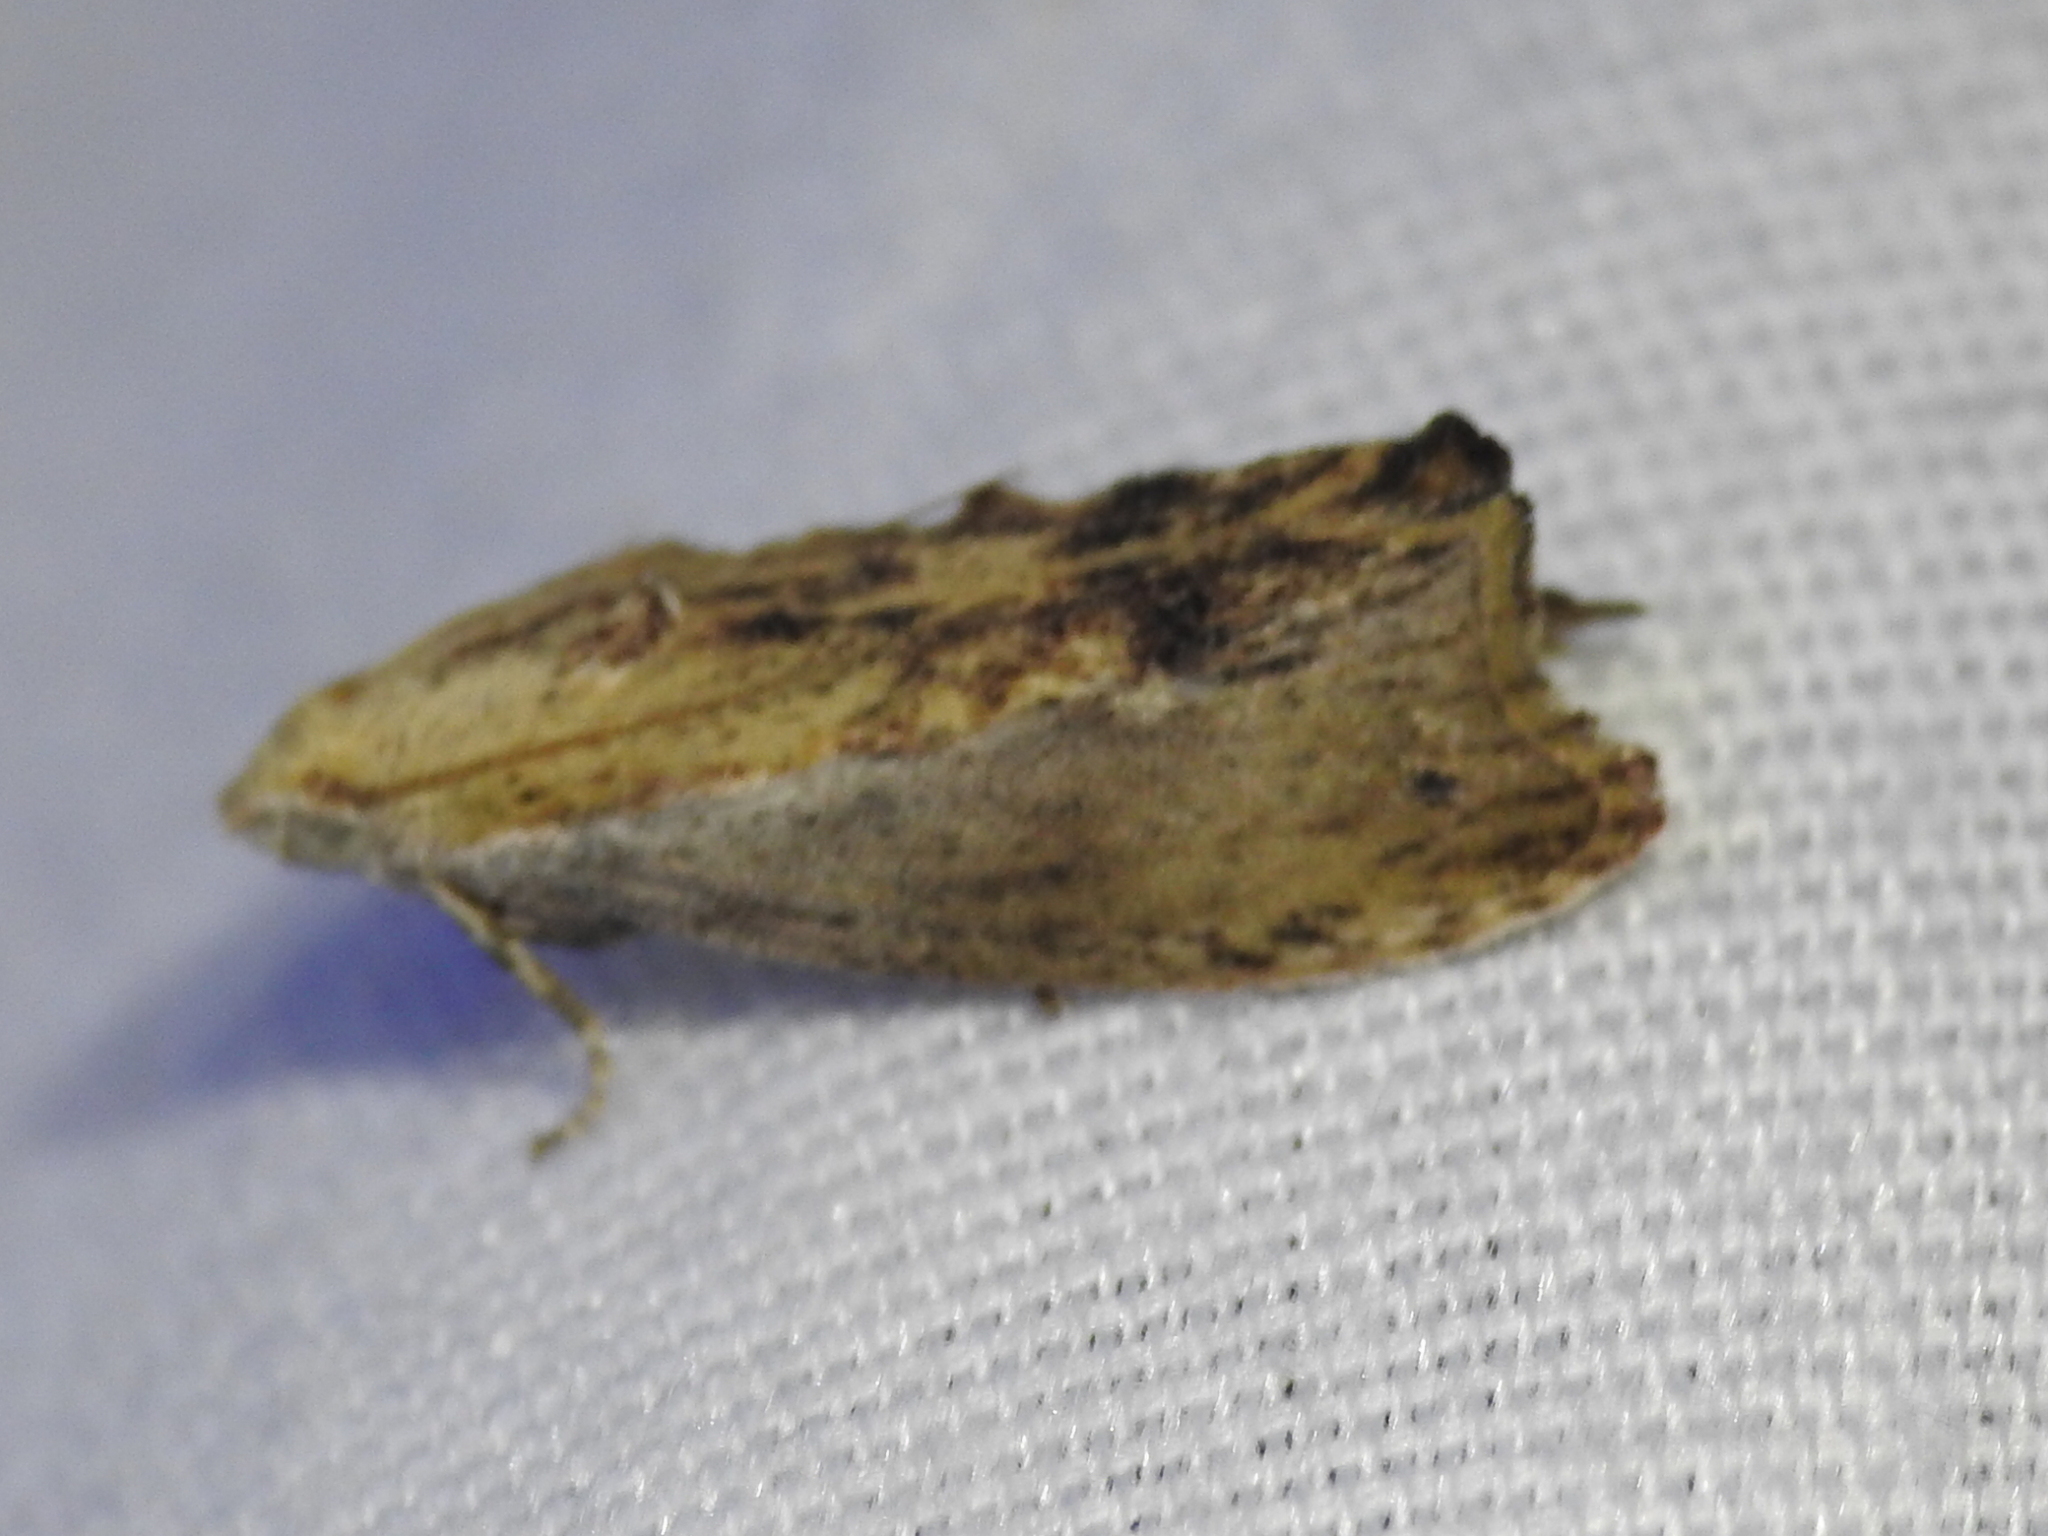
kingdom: Animalia
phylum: Arthropoda
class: Insecta
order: Lepidoptera
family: Pyralidae
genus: Galleria
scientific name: Galleria mellonella
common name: Greater wax moth
